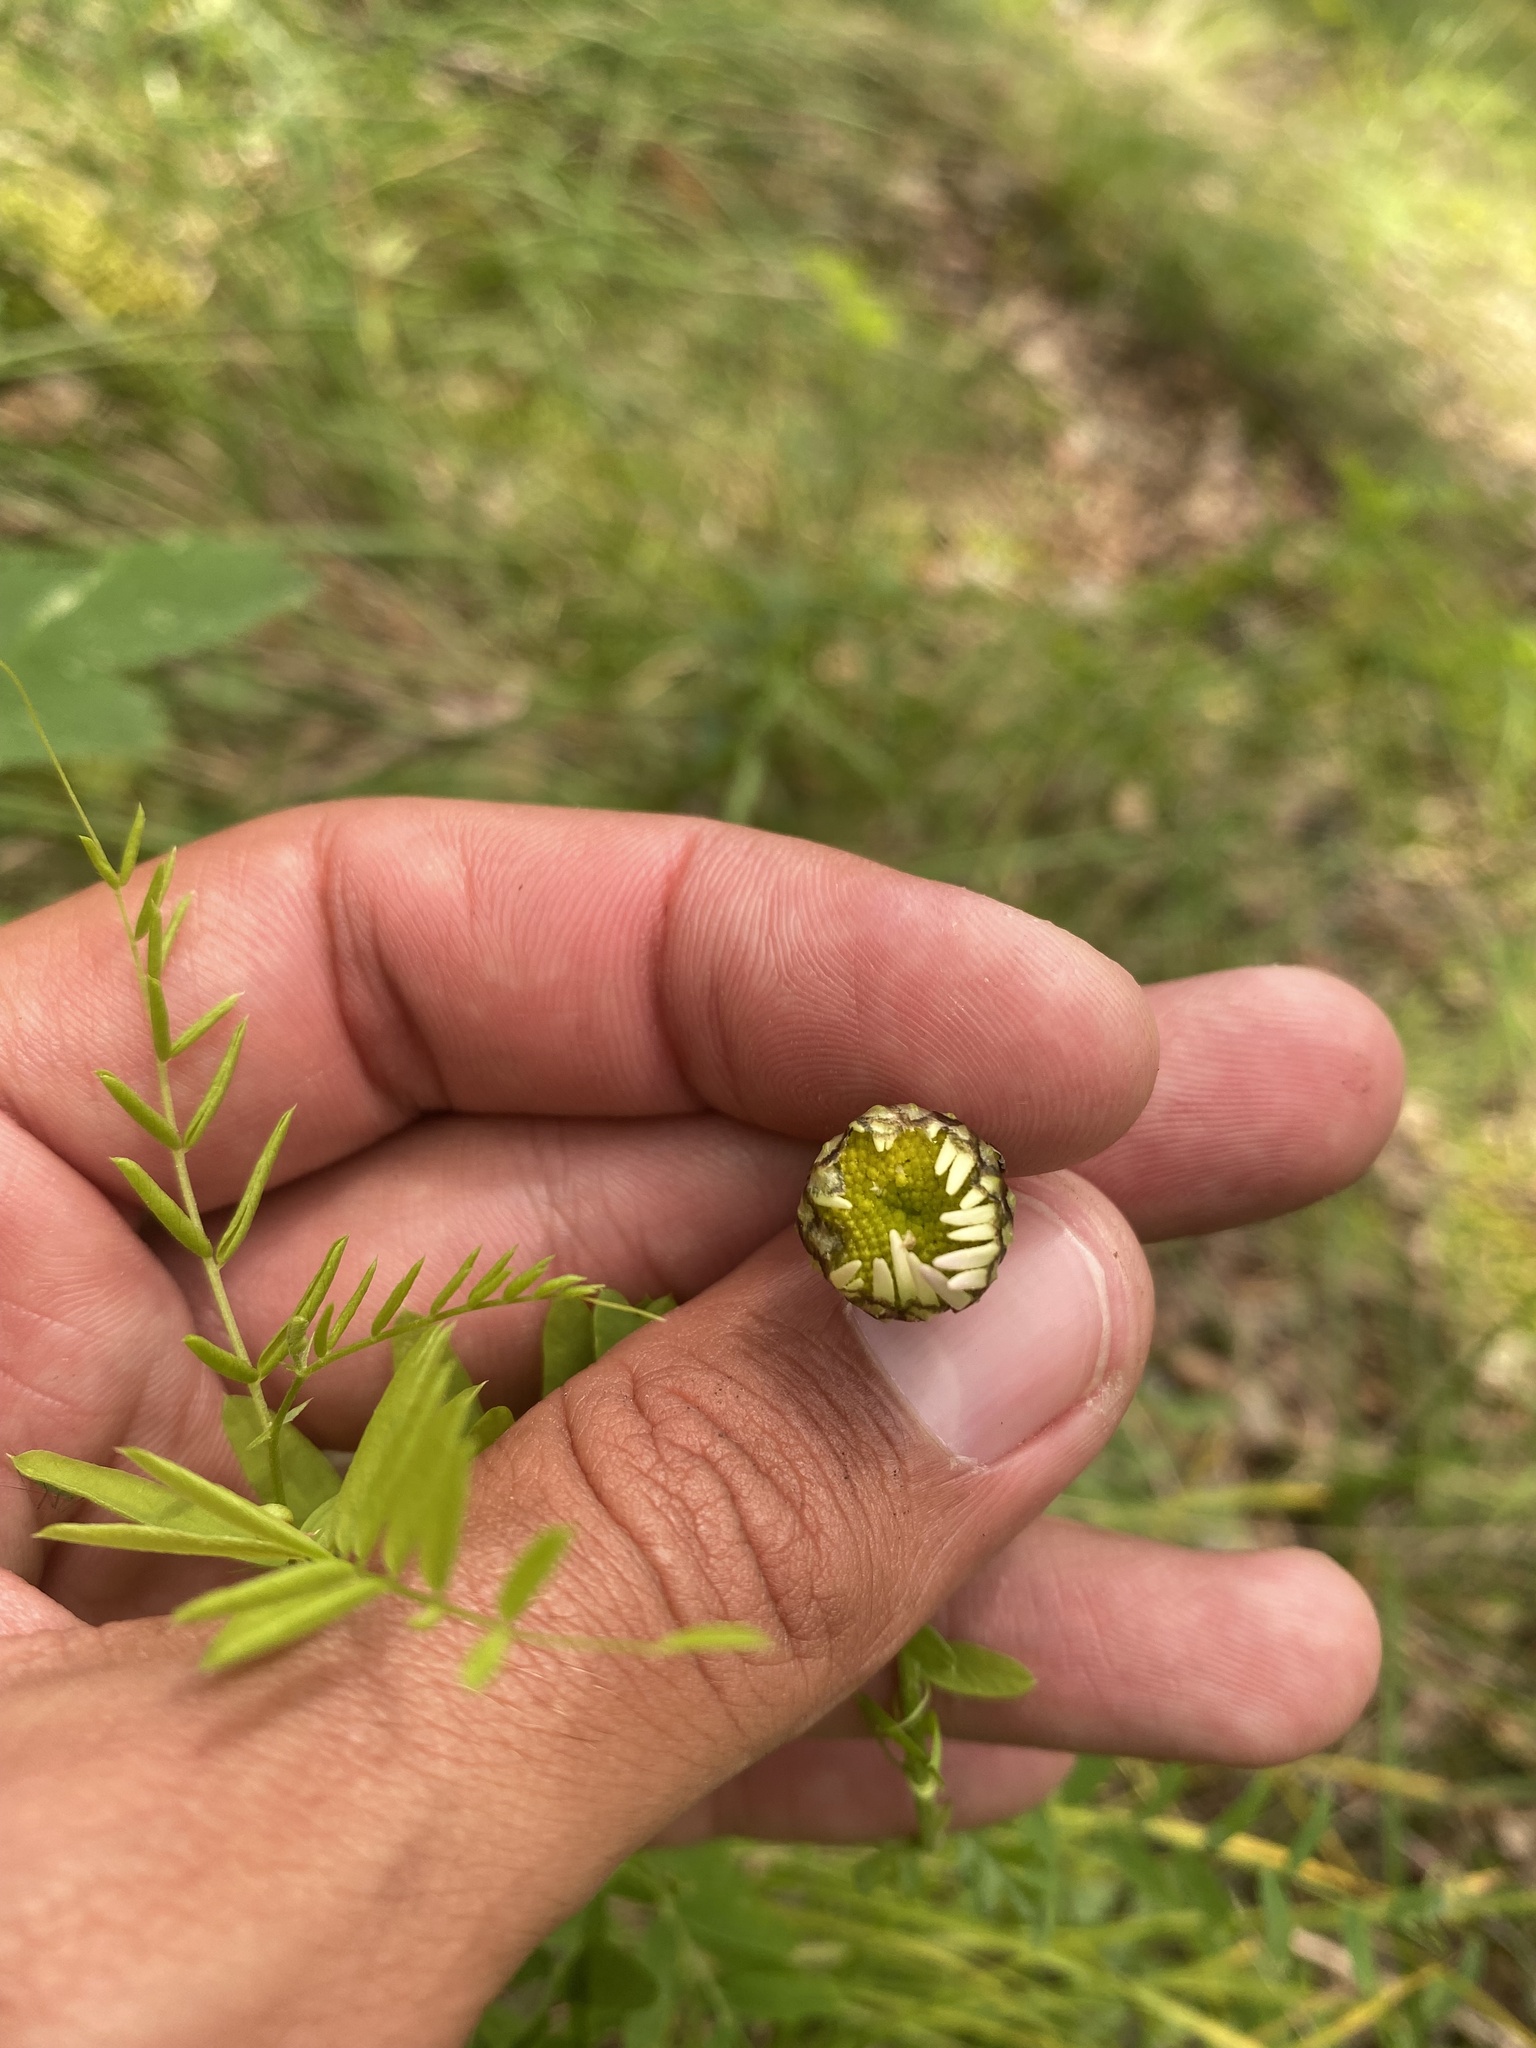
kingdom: Plantae
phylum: Tracheophyta
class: Magnoliopsida
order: Asterales
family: Asteraceae
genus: Chrysanthemum
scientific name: Chrysanthemum zawadzkii
